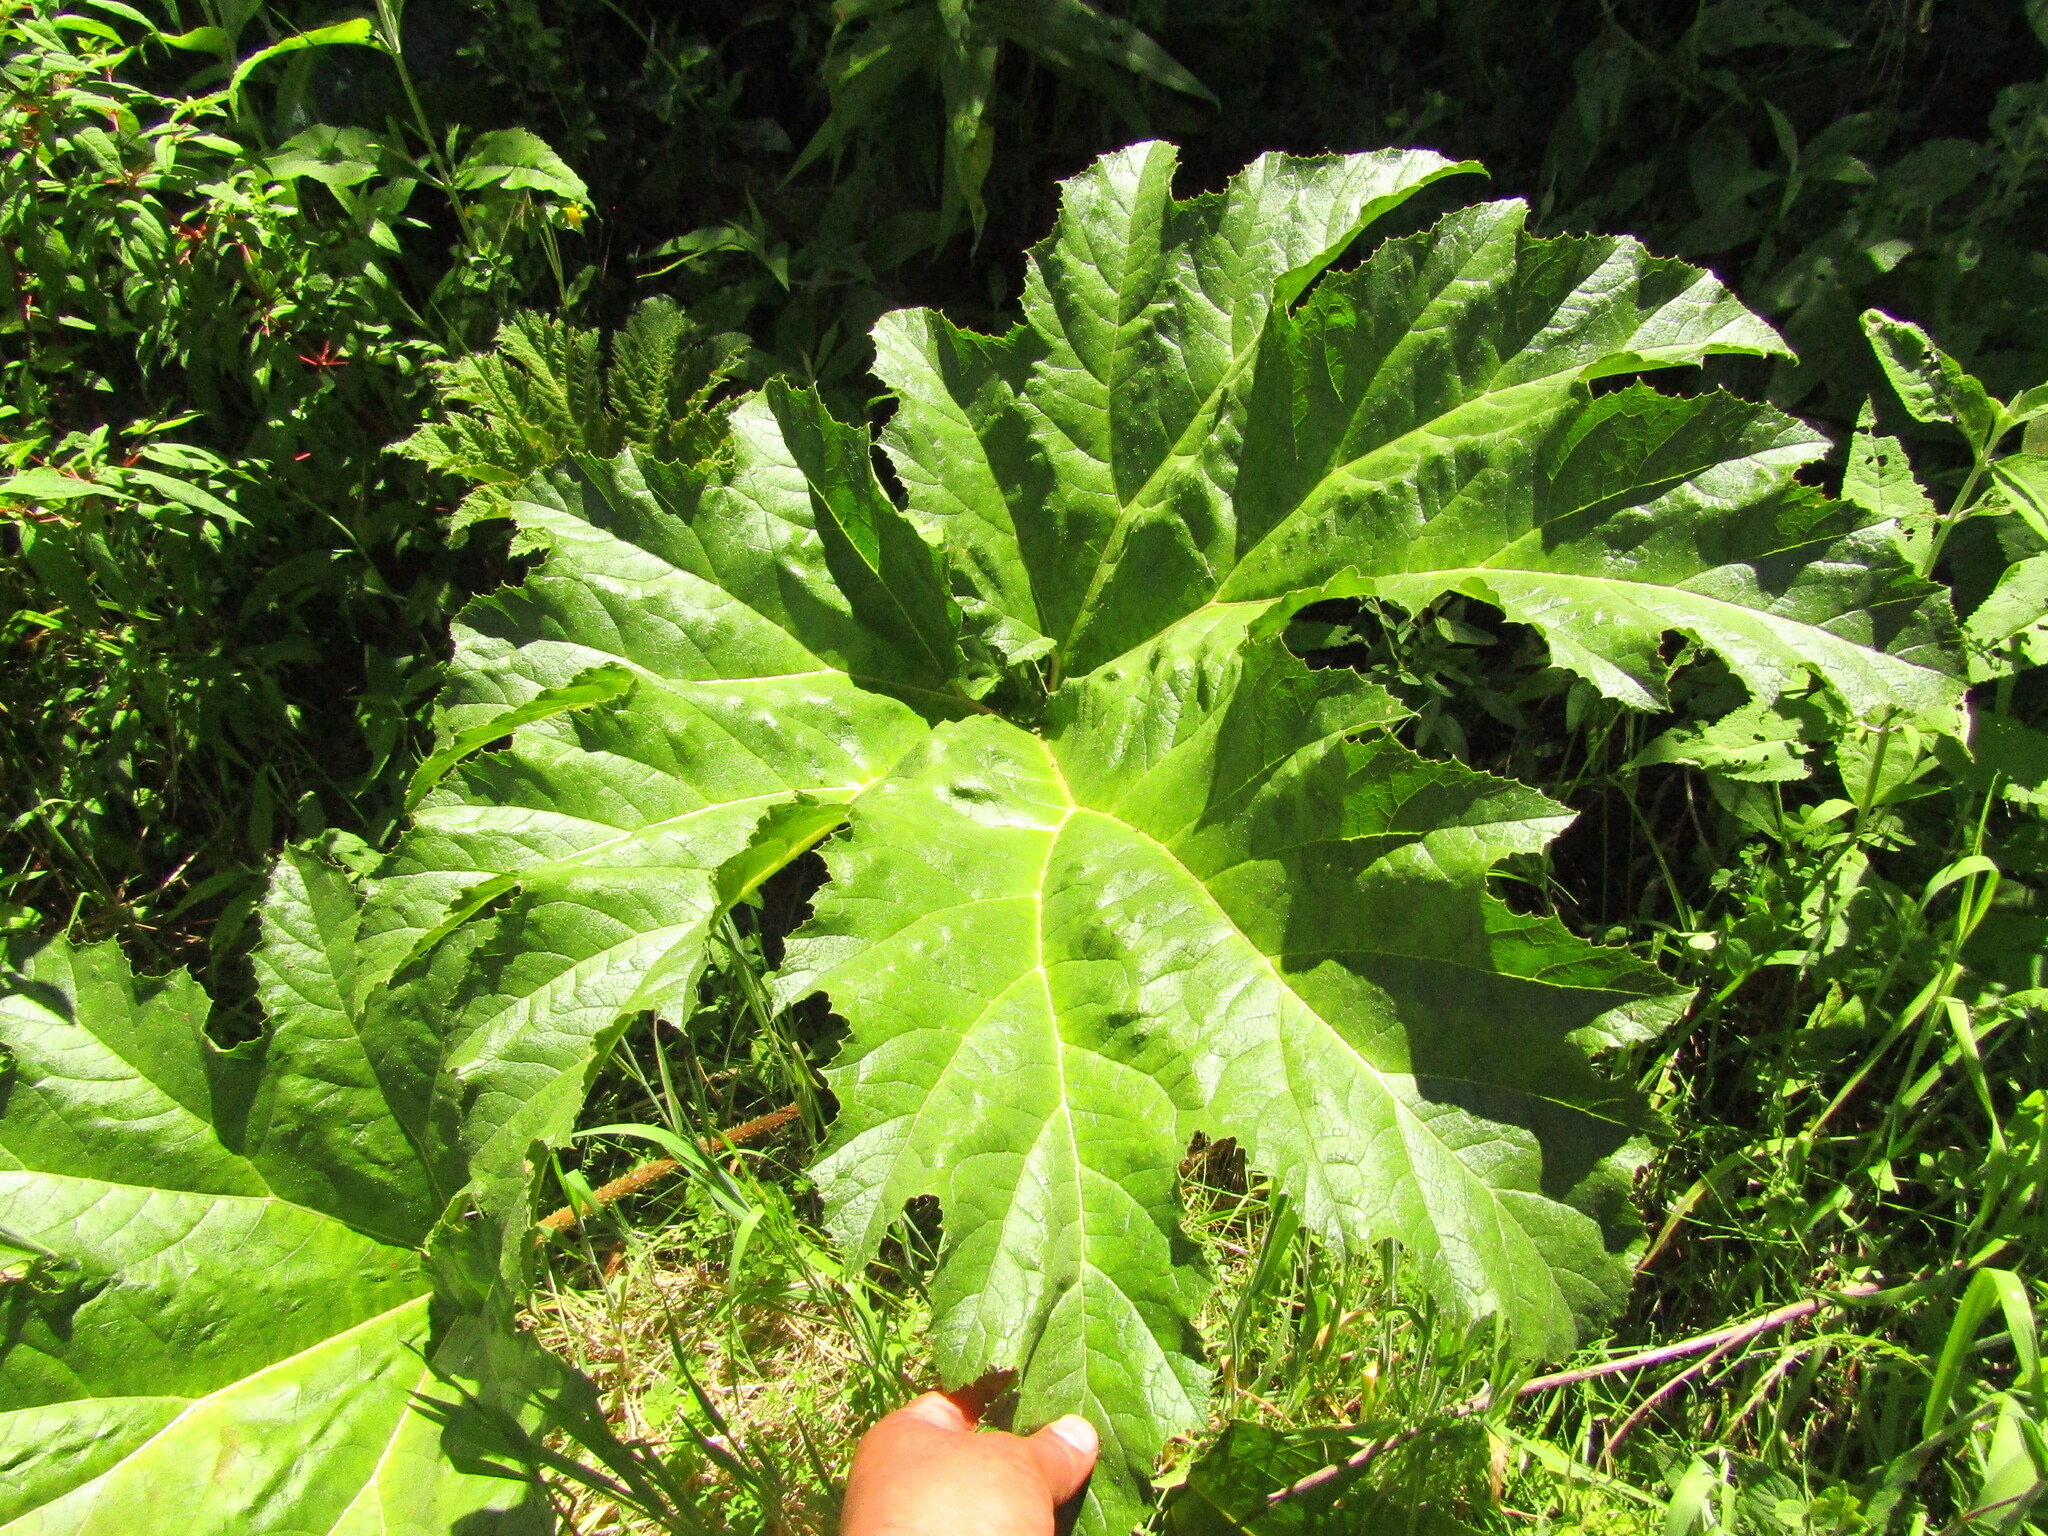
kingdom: Plantae
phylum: Tracheophyta
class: Magnoliopsida
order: Gunnerales
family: Gunneraceae
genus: Gunnera
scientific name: Gunnera tinctoria
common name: Giant-rhubarb
